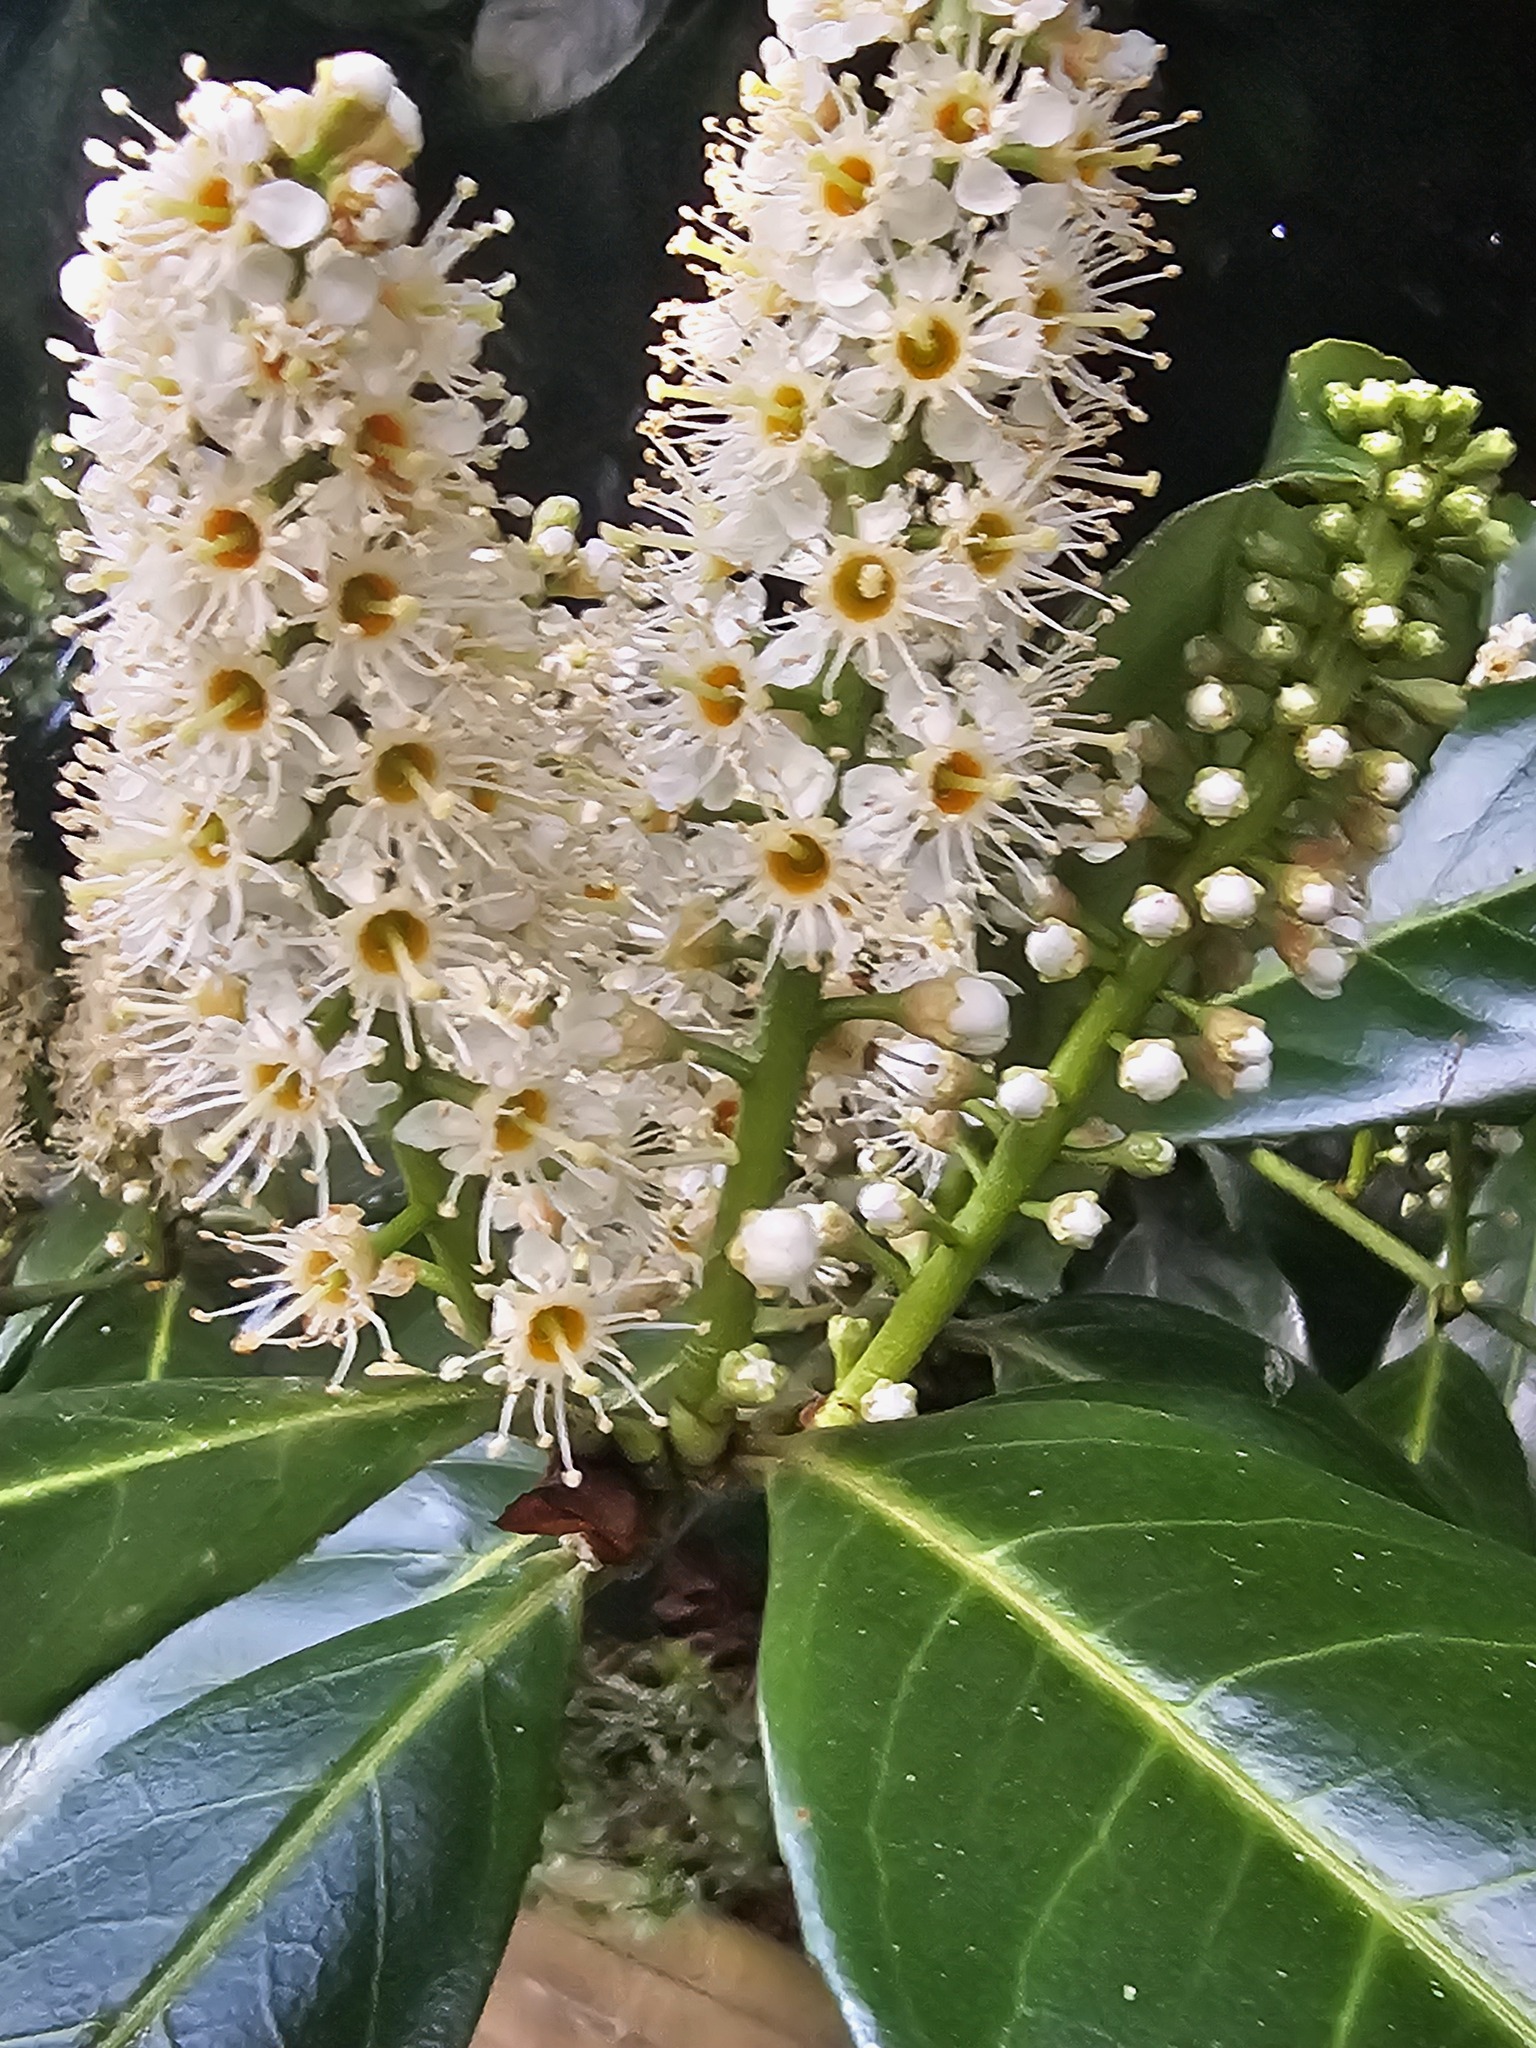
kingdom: Plantae
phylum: Tracheophyta
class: Magnoliopsida
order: Rosales
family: Rosaceae
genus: Prunus
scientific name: Prunus laurocerasus
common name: Cherry laurel
